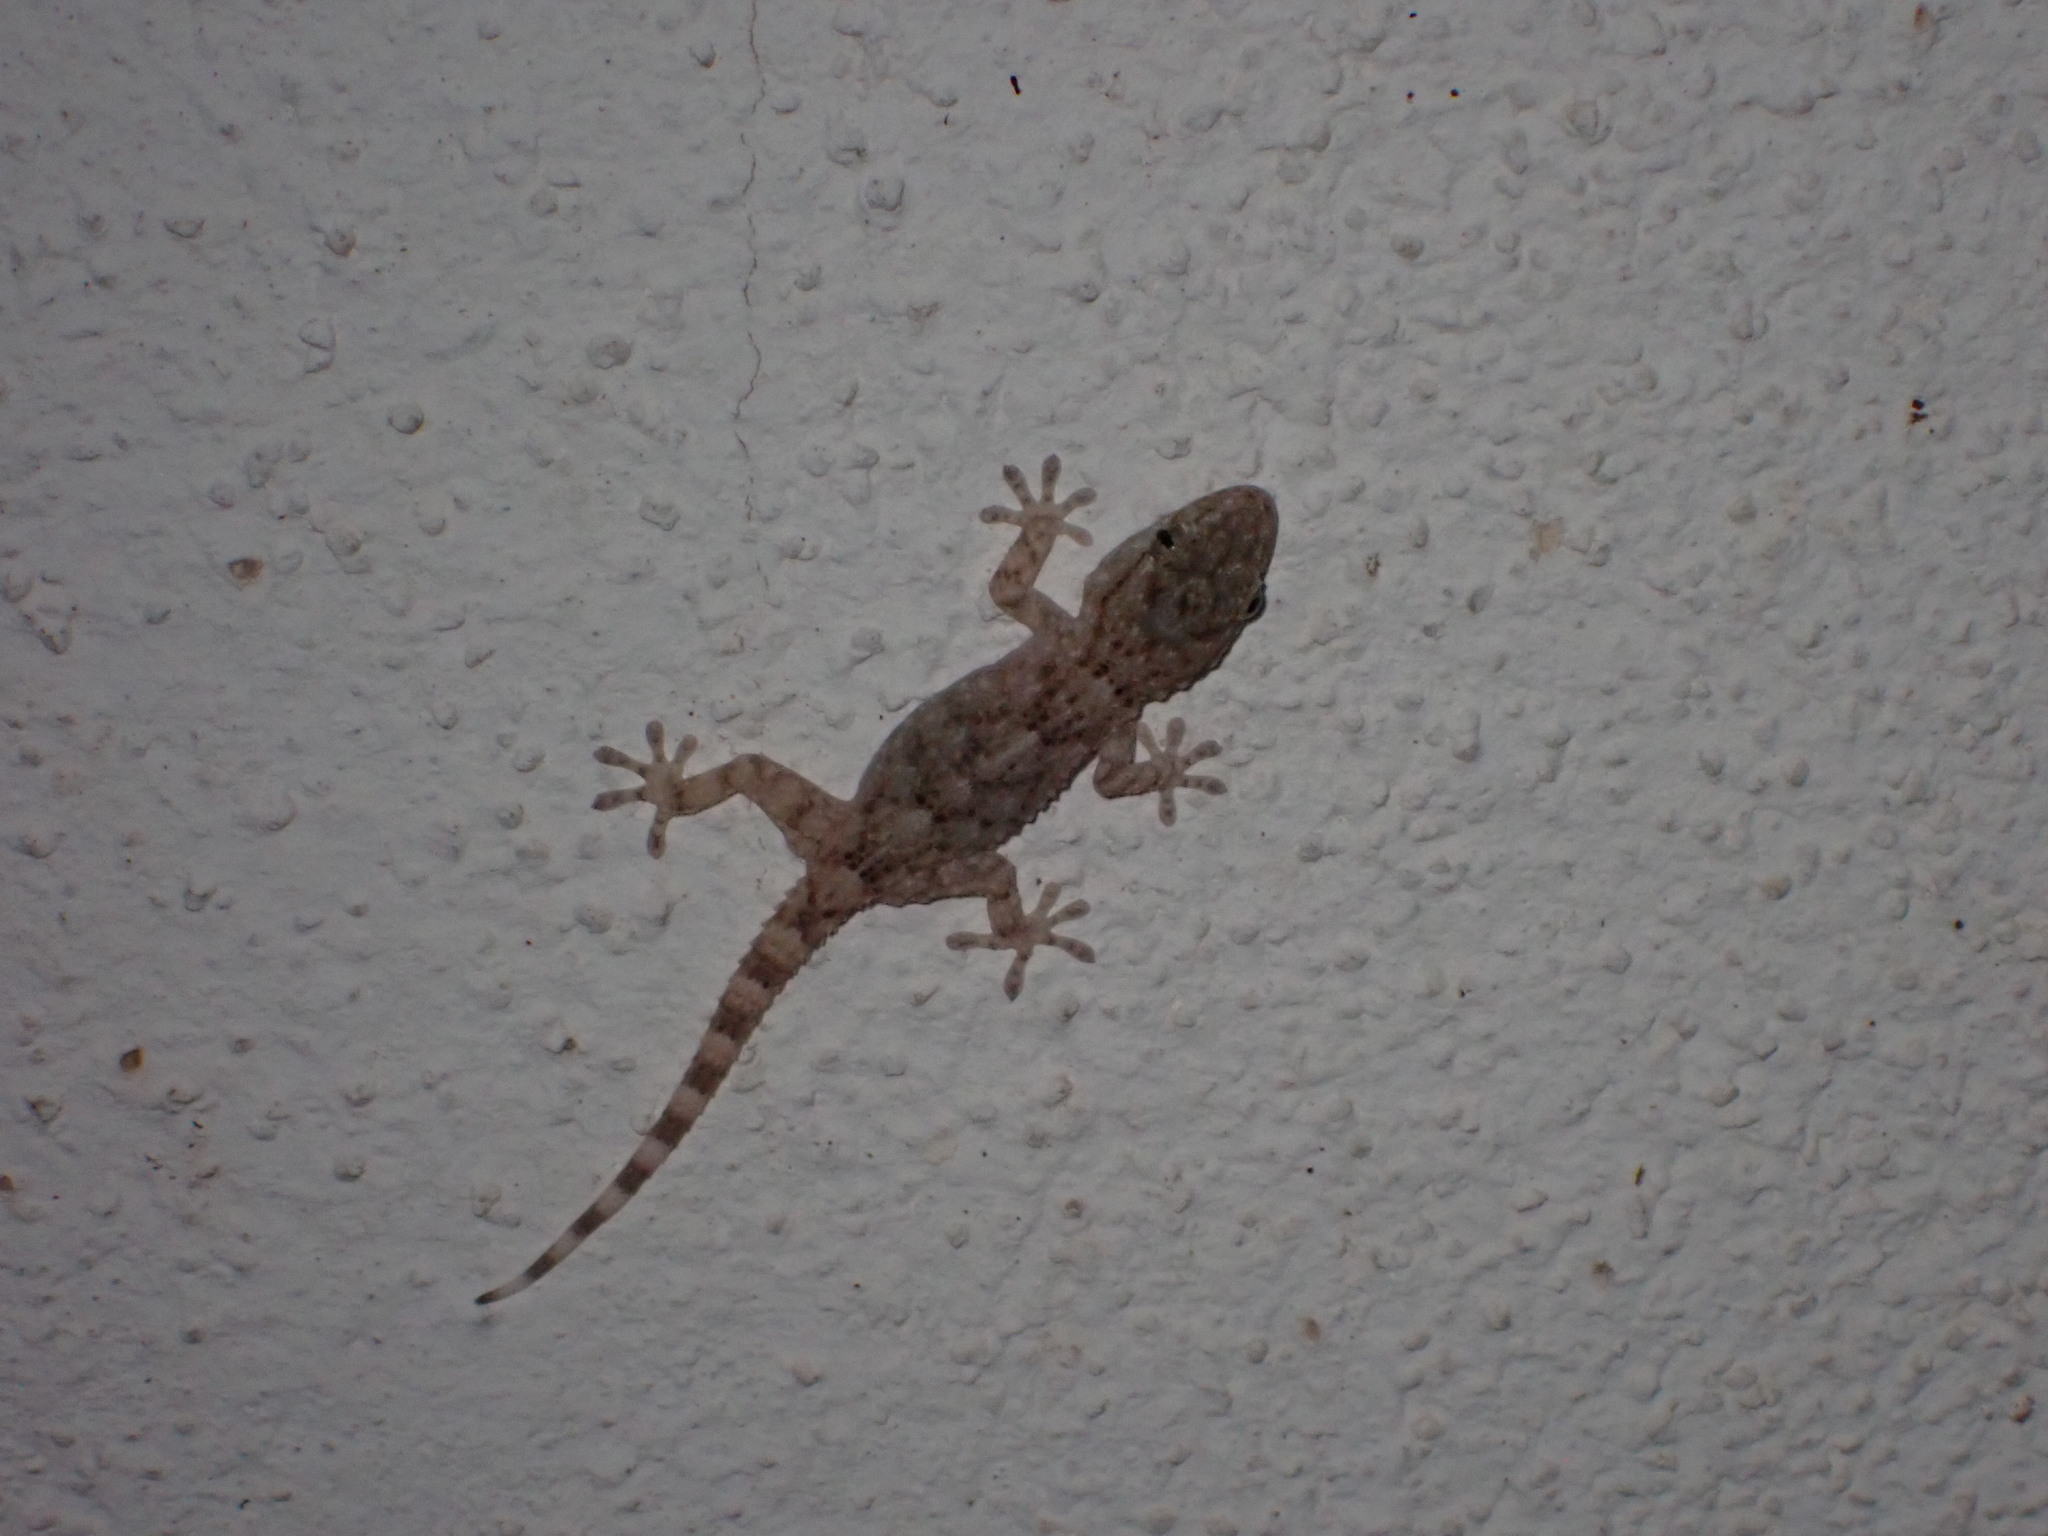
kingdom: Animalia
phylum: Chordata
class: Squamata
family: Phyllodactylidae
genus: Tarentola
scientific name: Tarentola mauritanica
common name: Moorish gecko
